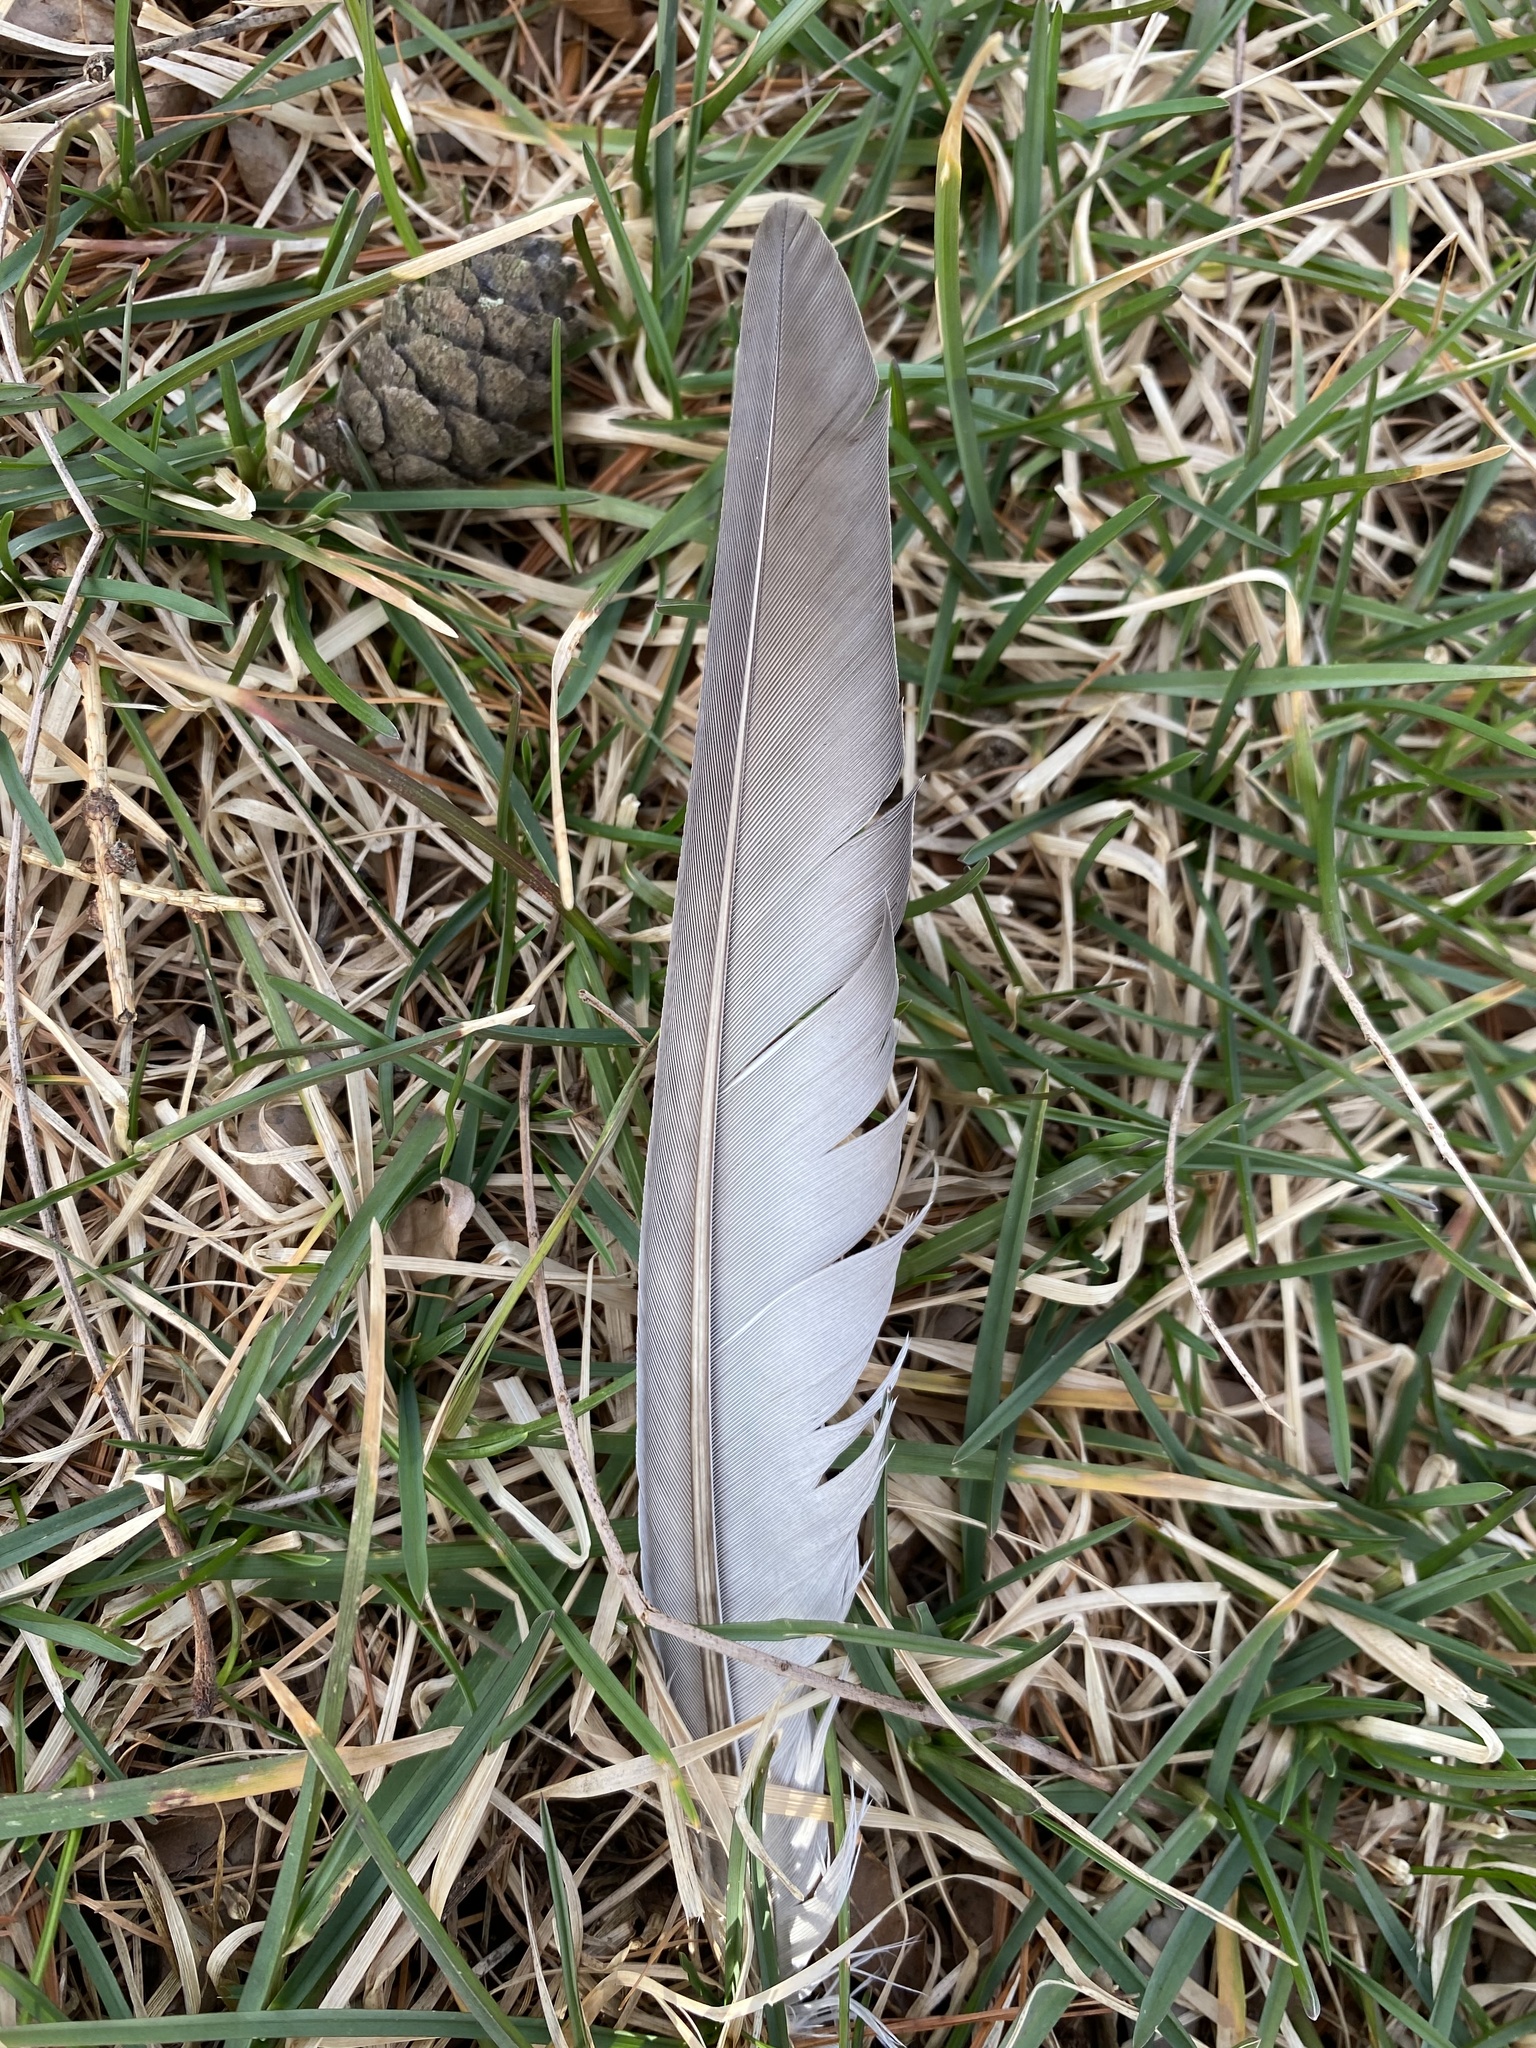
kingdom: Animalia
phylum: Chordata
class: Aves
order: Columbiformes
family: Columbidae
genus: Columba
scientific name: Columba livia
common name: Rock pigeon
